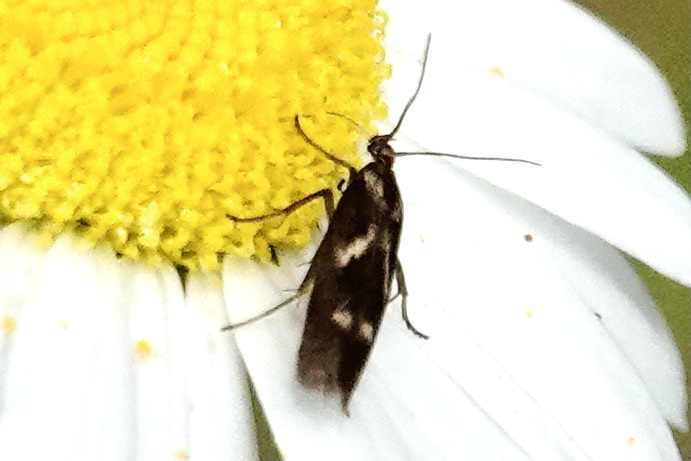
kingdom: Animalia
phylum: Arthropoda
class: Insecta
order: Lepidoptera
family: Scythrididae
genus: Landryia
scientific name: Landryia impositella
